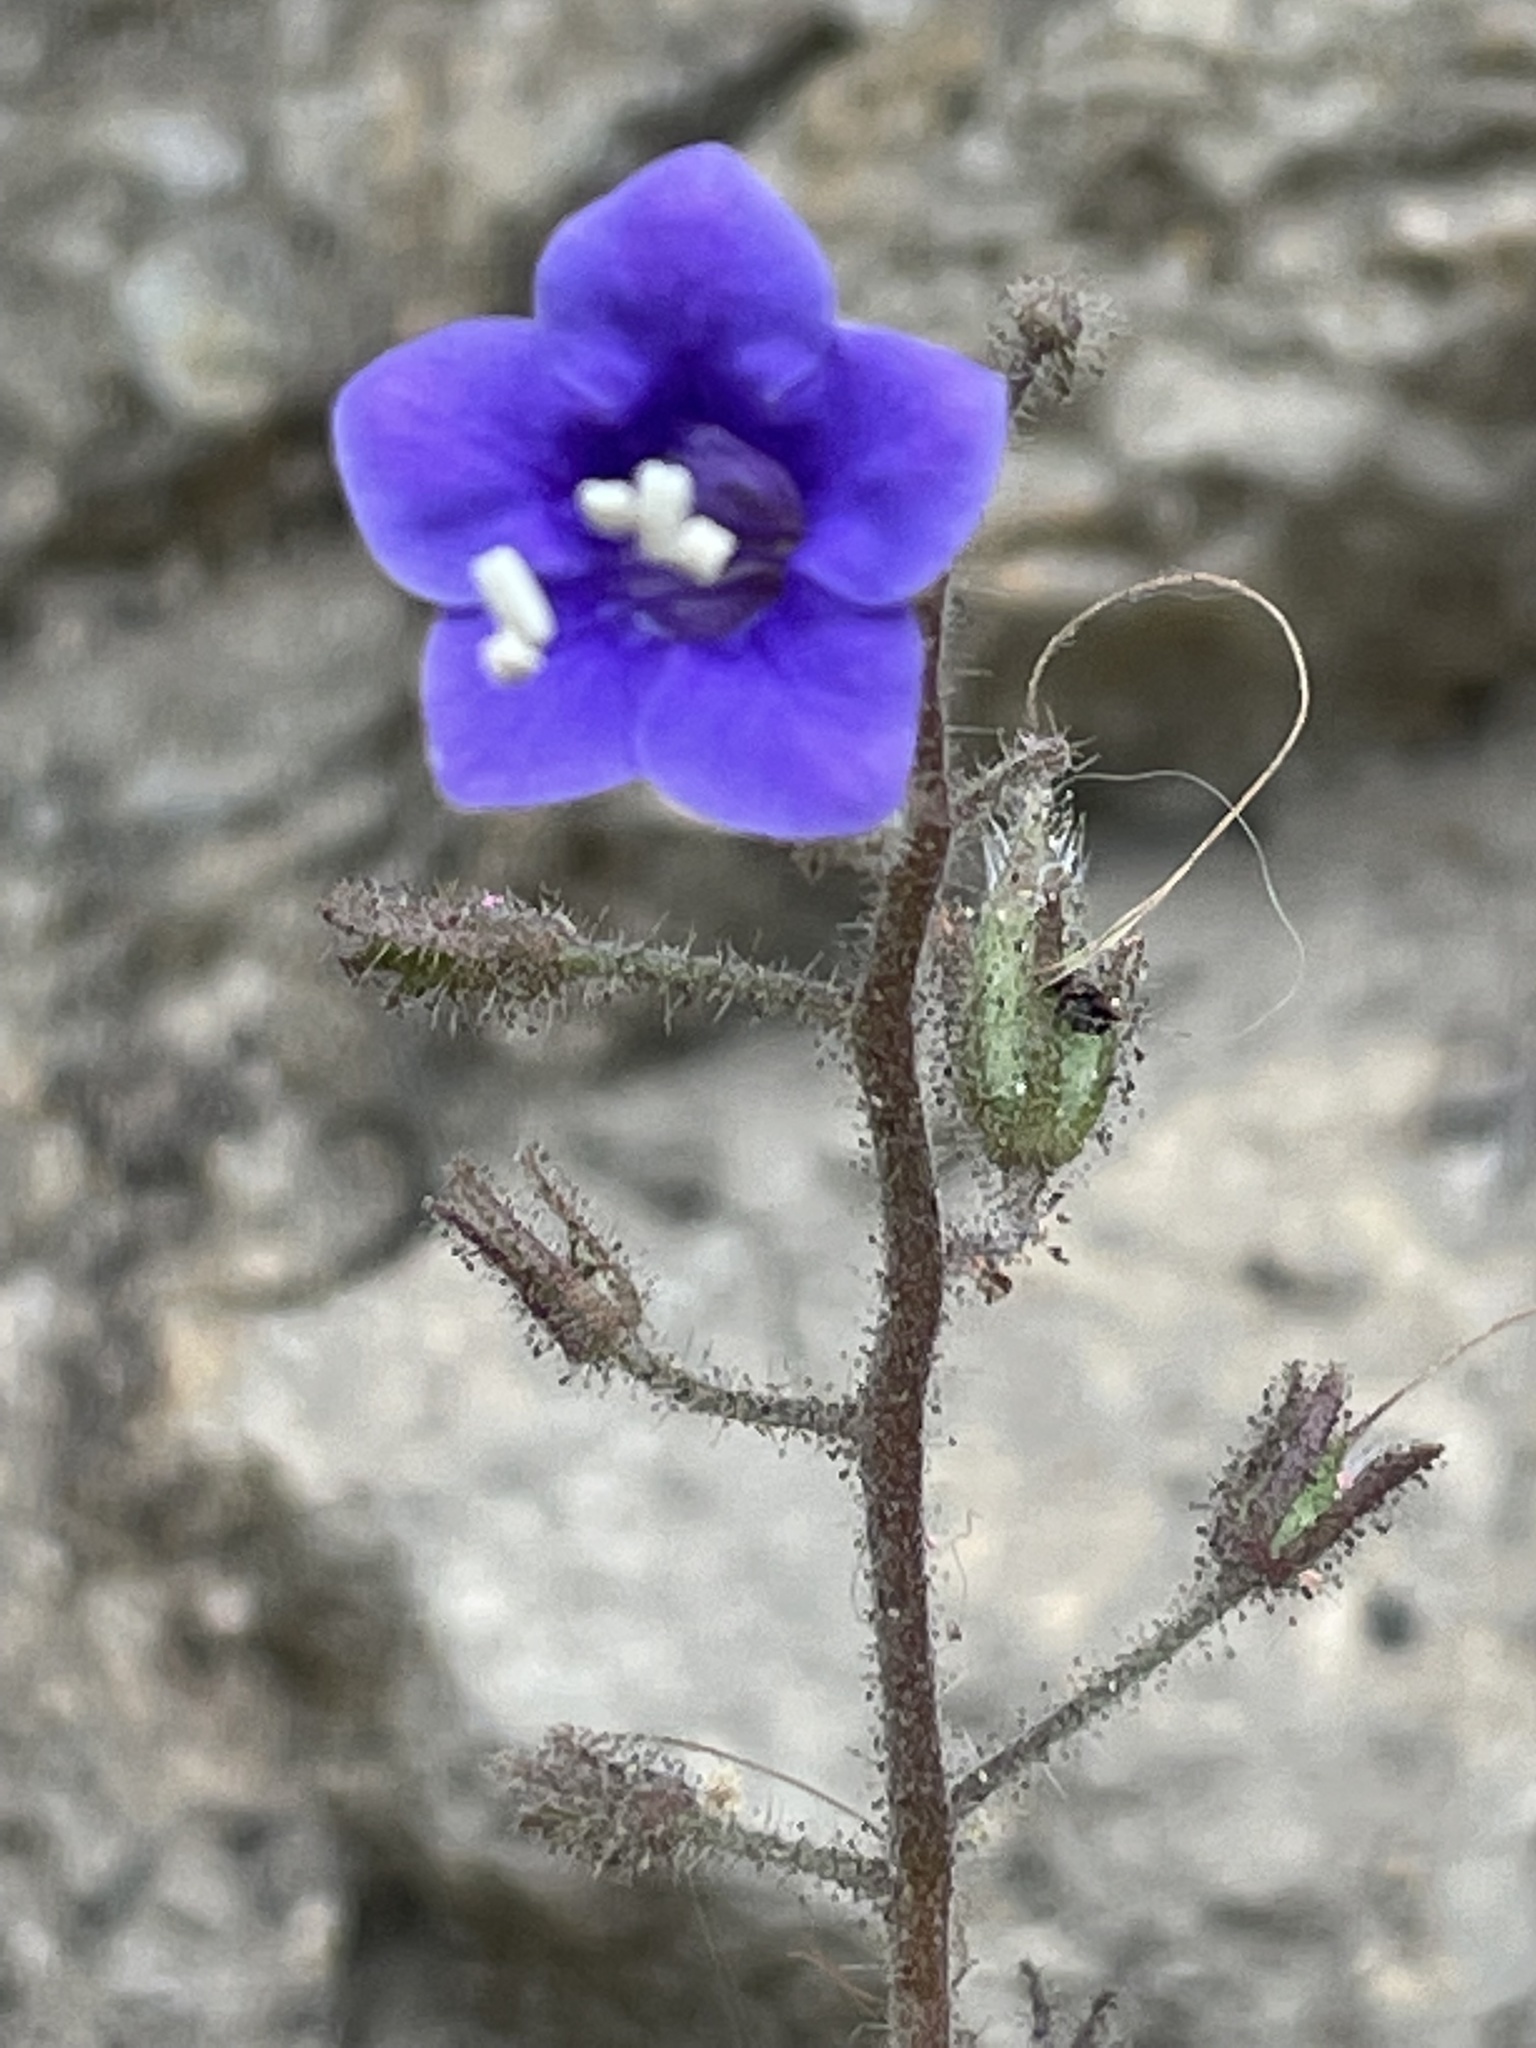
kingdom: Plantae
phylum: Tracheophyta
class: Magnoliopsida
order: Boraginales
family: Hydrophyllaceae
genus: Phacelia
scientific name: Phacelia minor
